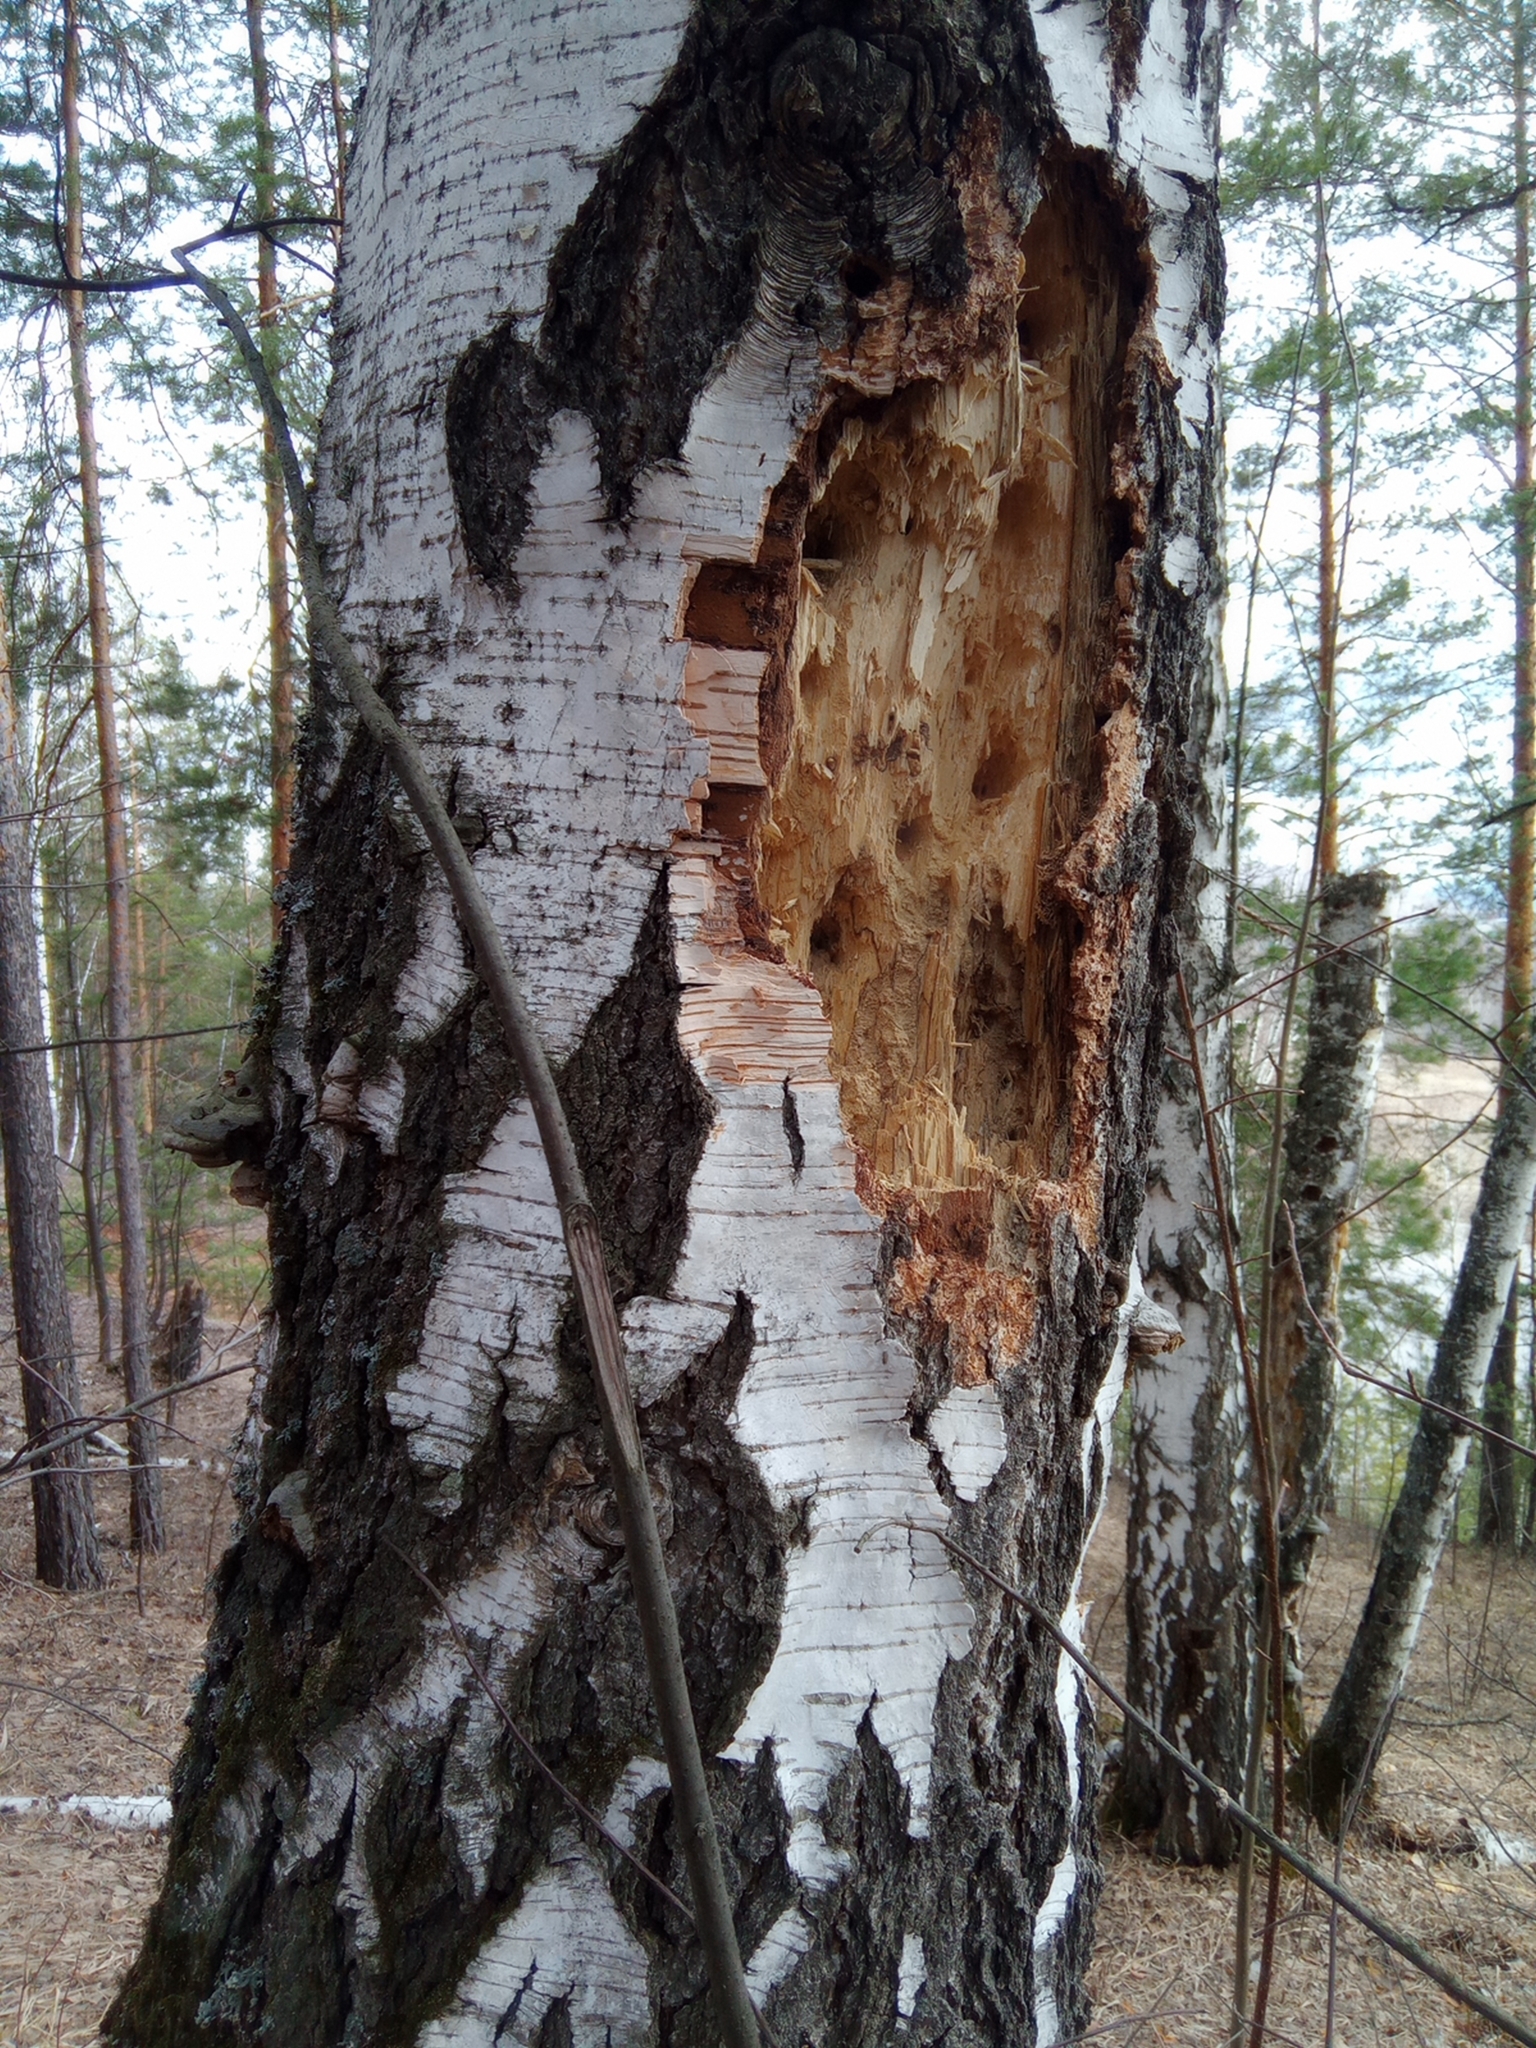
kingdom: Animalia
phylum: Chordata
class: Aves
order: Piciformes
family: Picidae
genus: Dryocopus
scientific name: Dryocopus martius
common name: Black woodpecker
